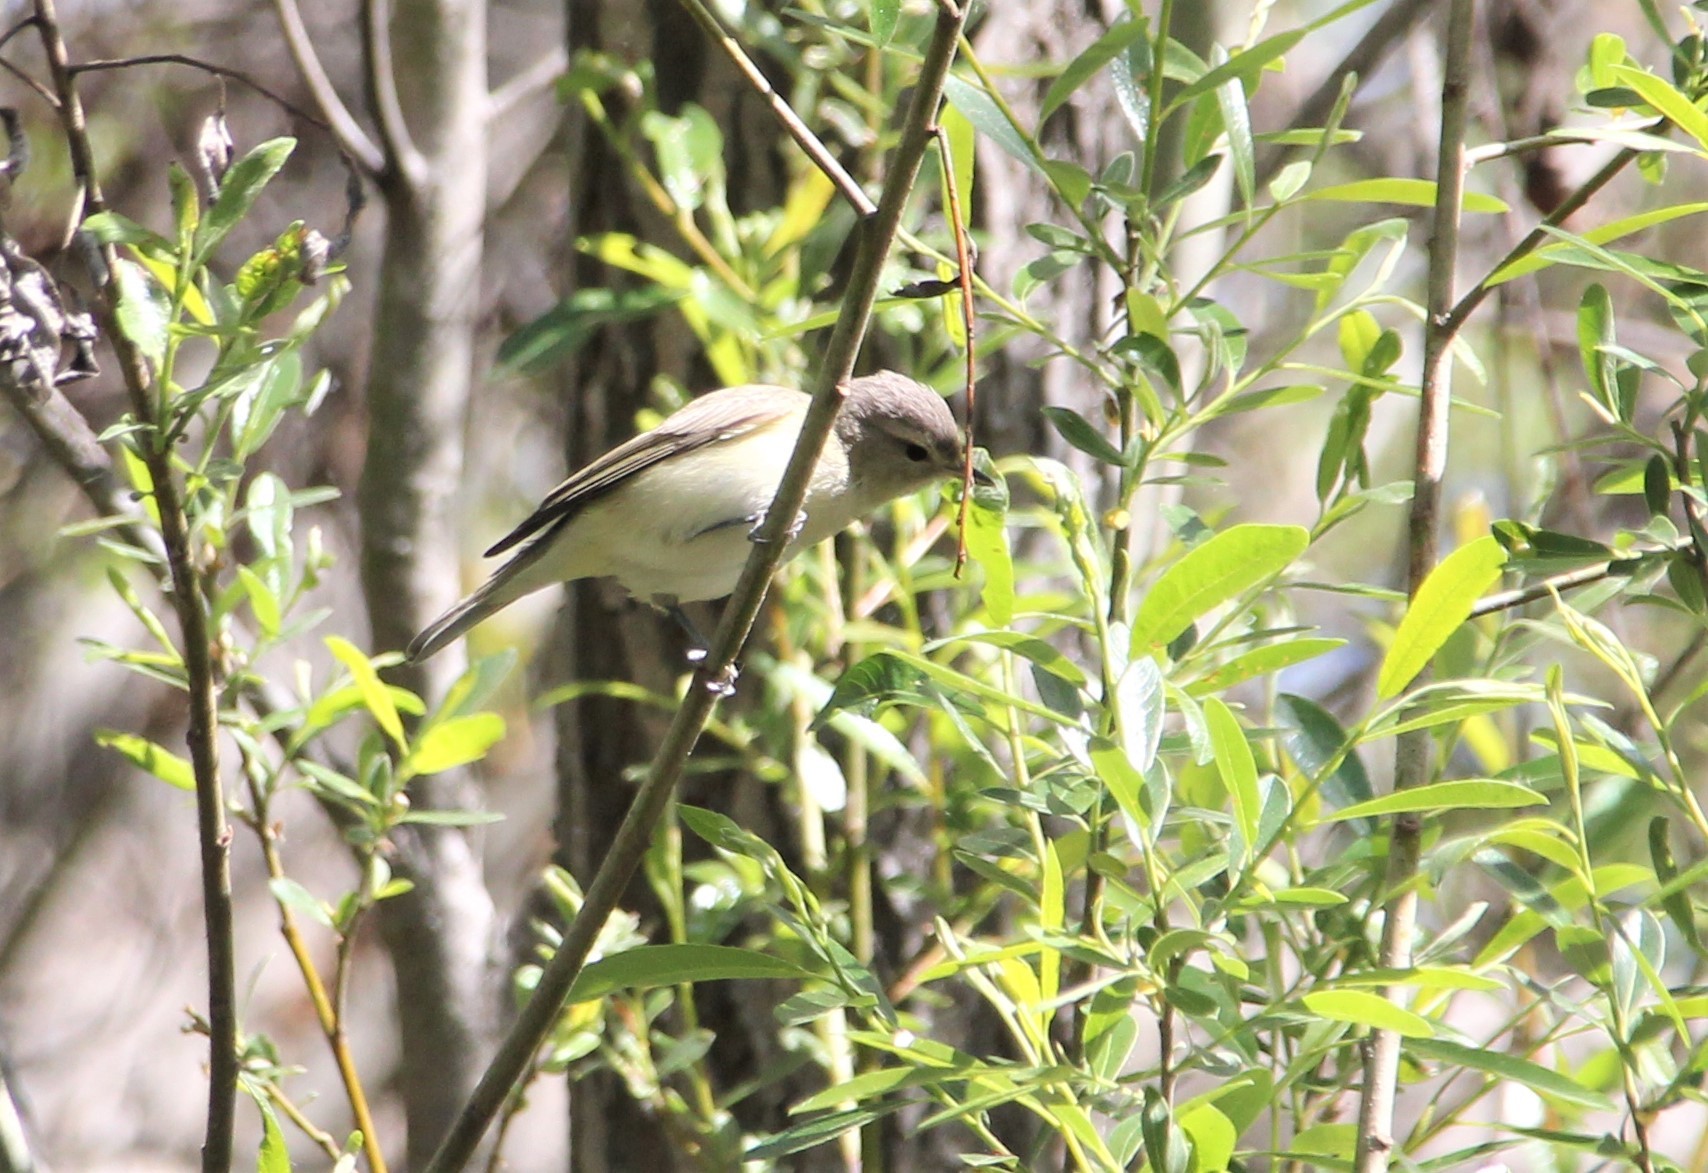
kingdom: Animalia
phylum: Chordata
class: Aves
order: Passeriformes
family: Vireonidae
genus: Vireo
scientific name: Vireo gilvus
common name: Warbling vireo
